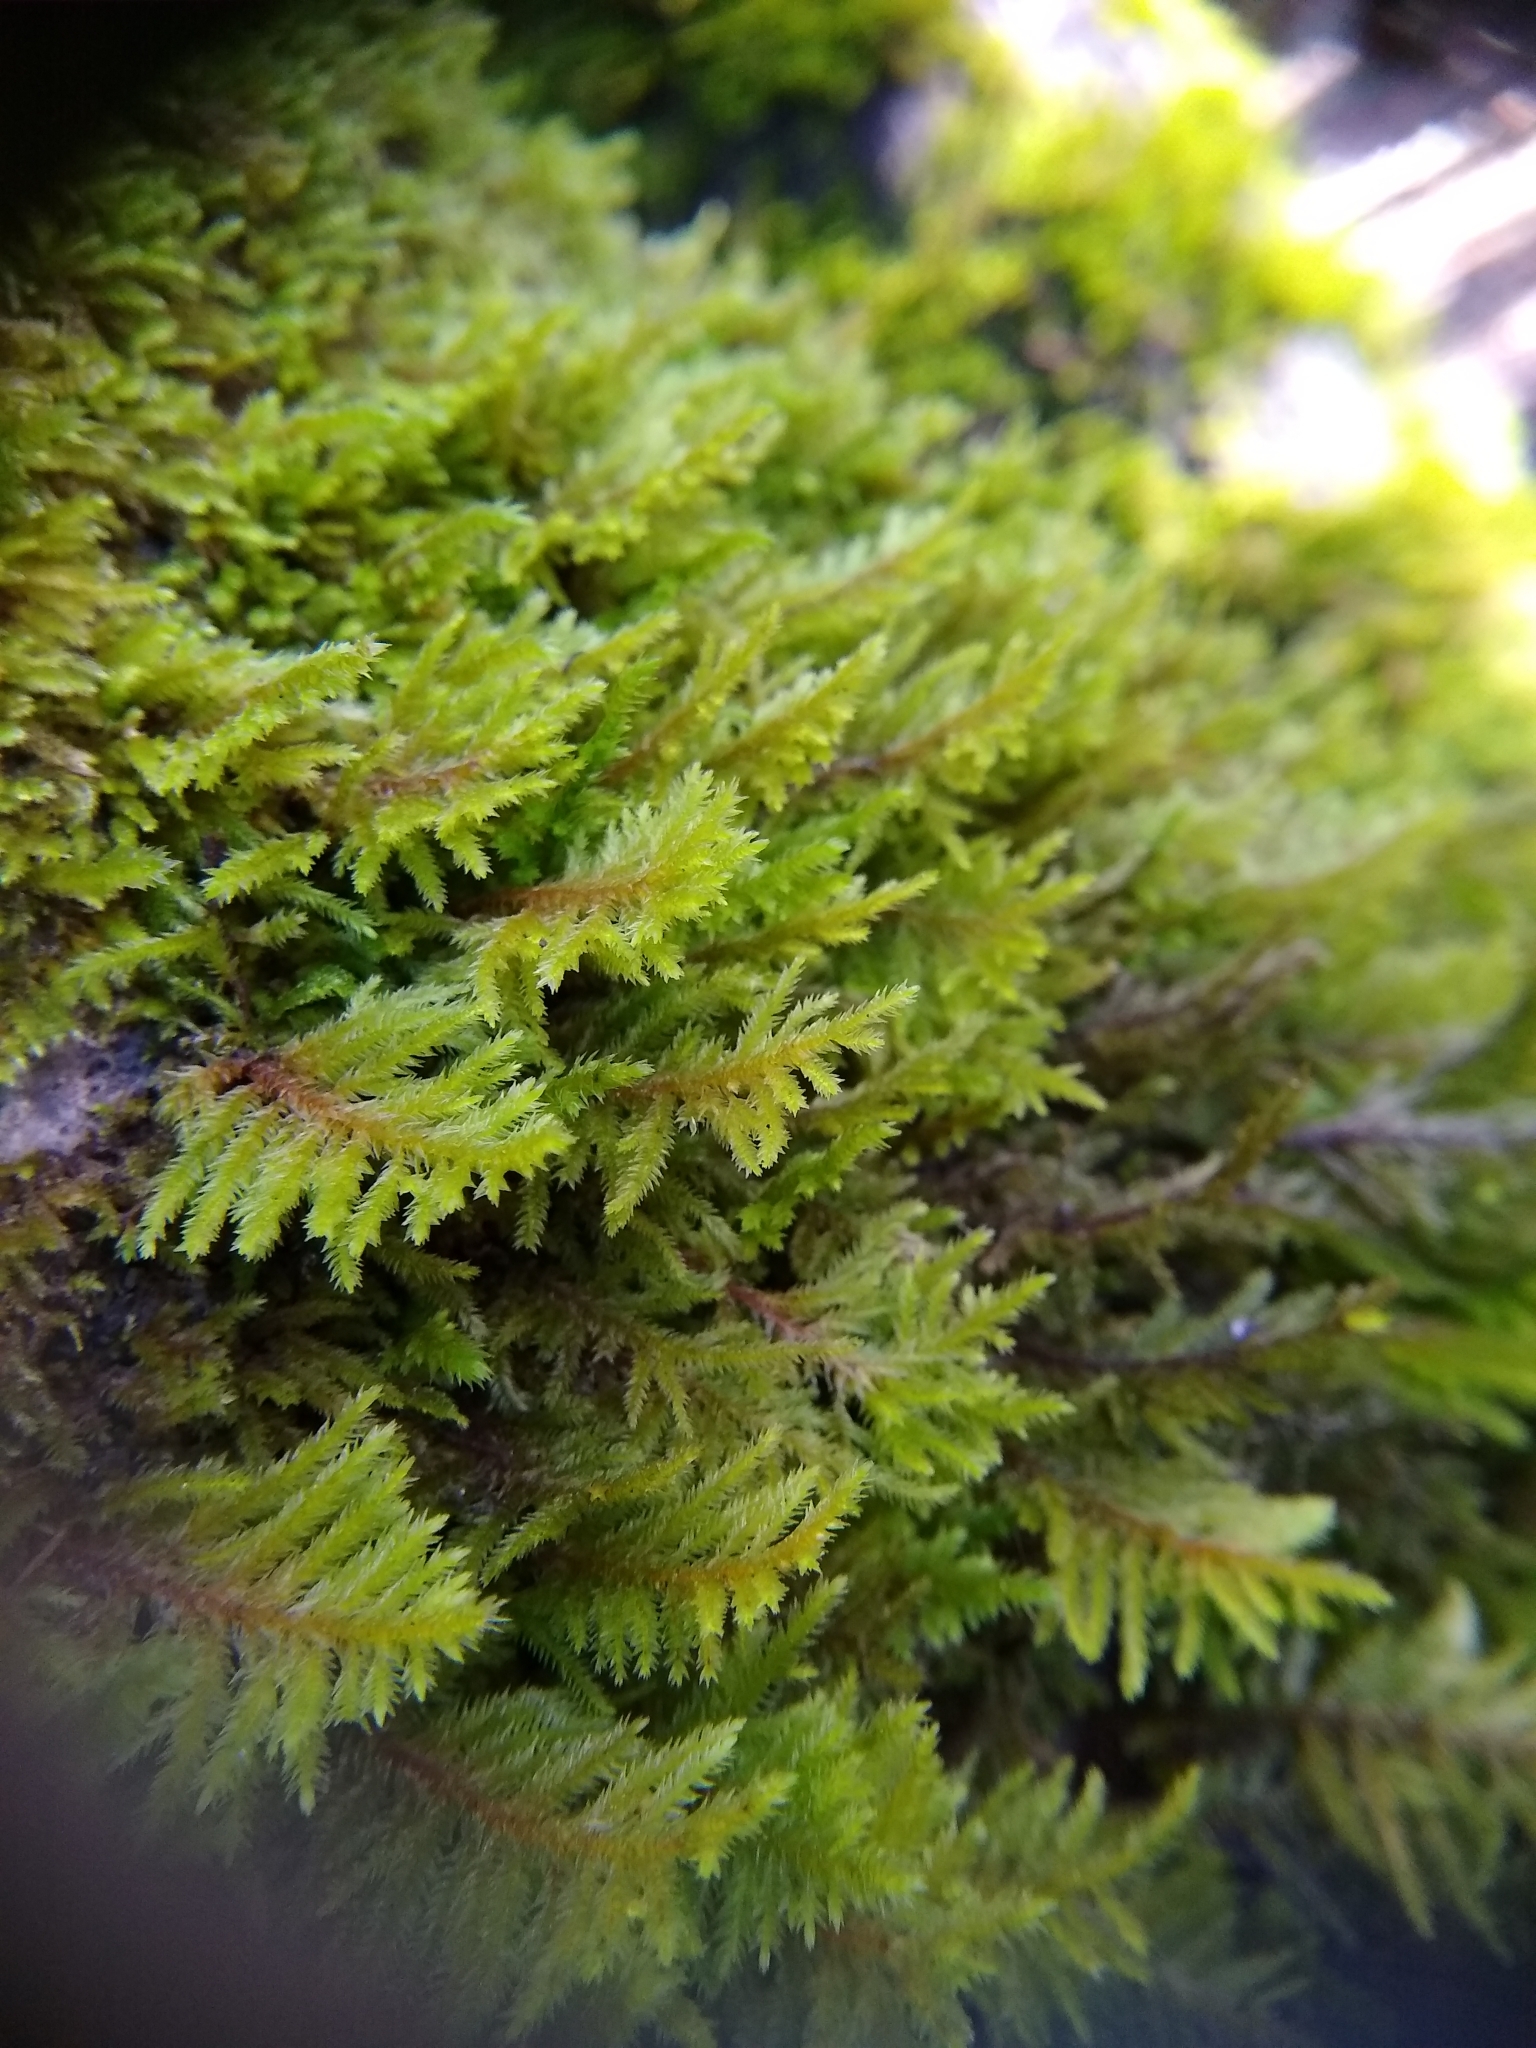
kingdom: Plantae
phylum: Bryophyta
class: Bryopsida
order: Hypnales
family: Cryphaeaceae
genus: Dendroalsia
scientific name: Dendroalsia abietina
